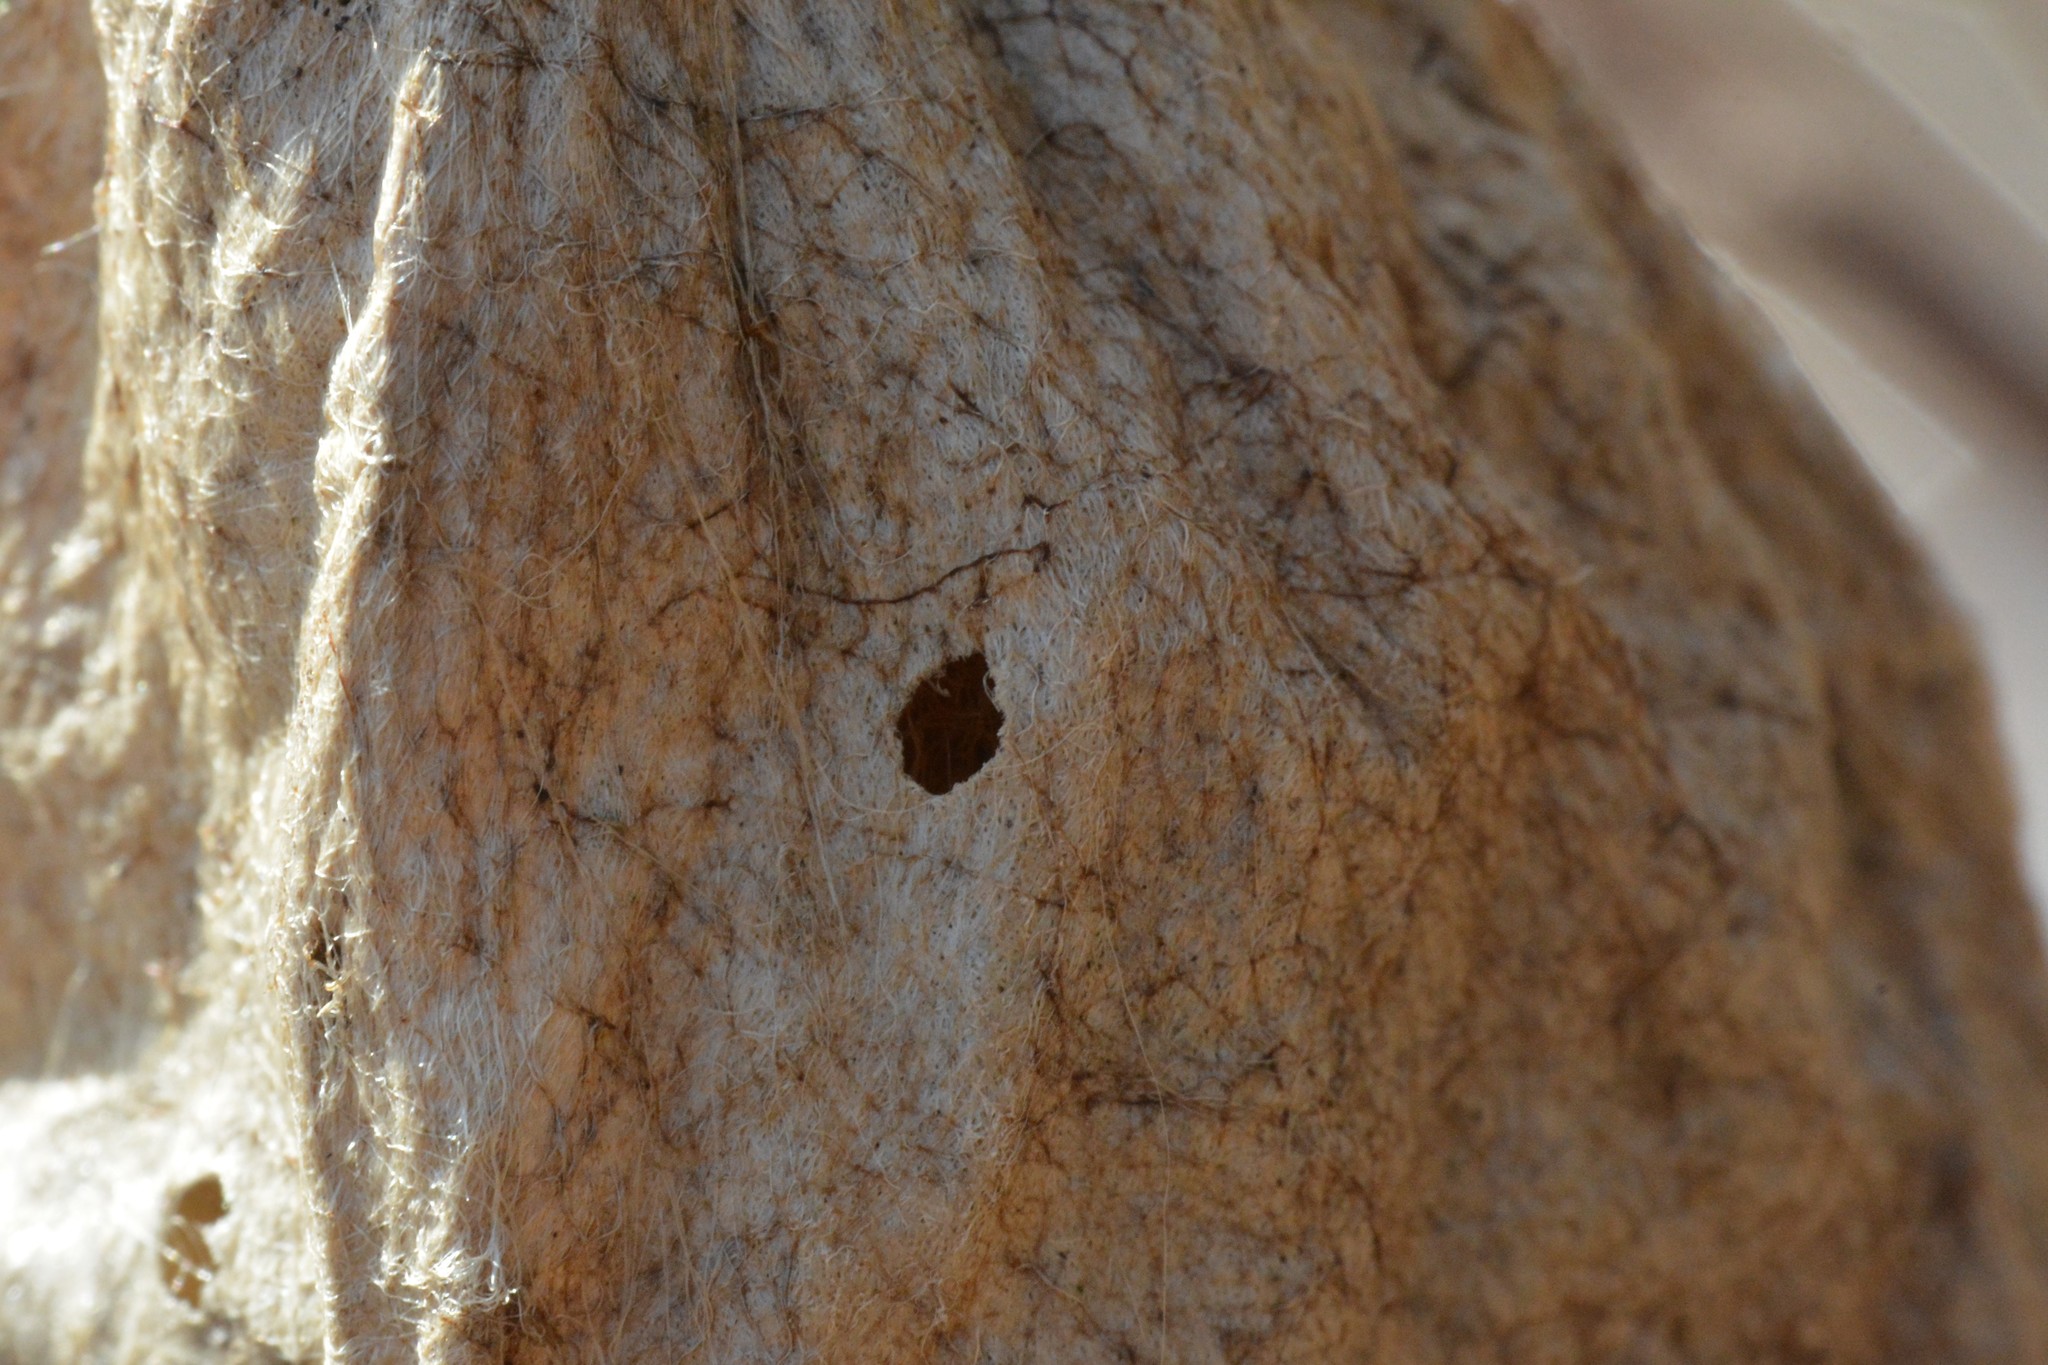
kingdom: Animalia
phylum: Arthropoda
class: Insecta
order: Lepidoptera
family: Saturniidae
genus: Hyalophora
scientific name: Hyalophora cecropia
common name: Cecropia silkmoth
